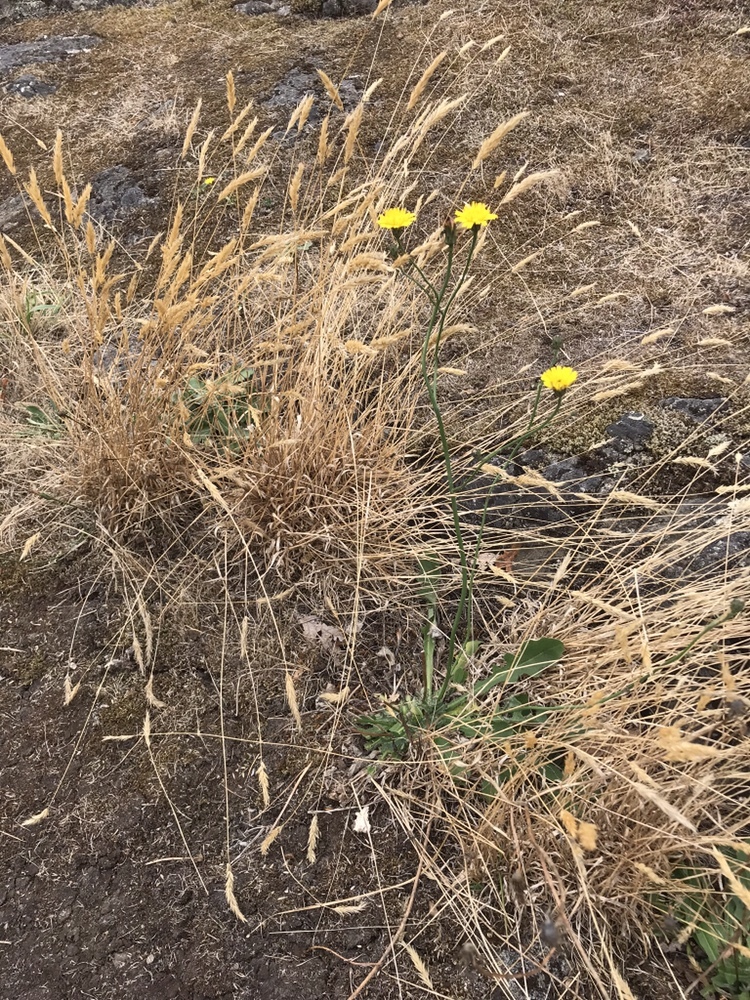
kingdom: Plantae
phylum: Tracheophyta
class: Magnoliopsida
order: Asterales
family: Asteraceae
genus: Hypochaeris
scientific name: Hypochaeris radicata
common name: Flatweed
